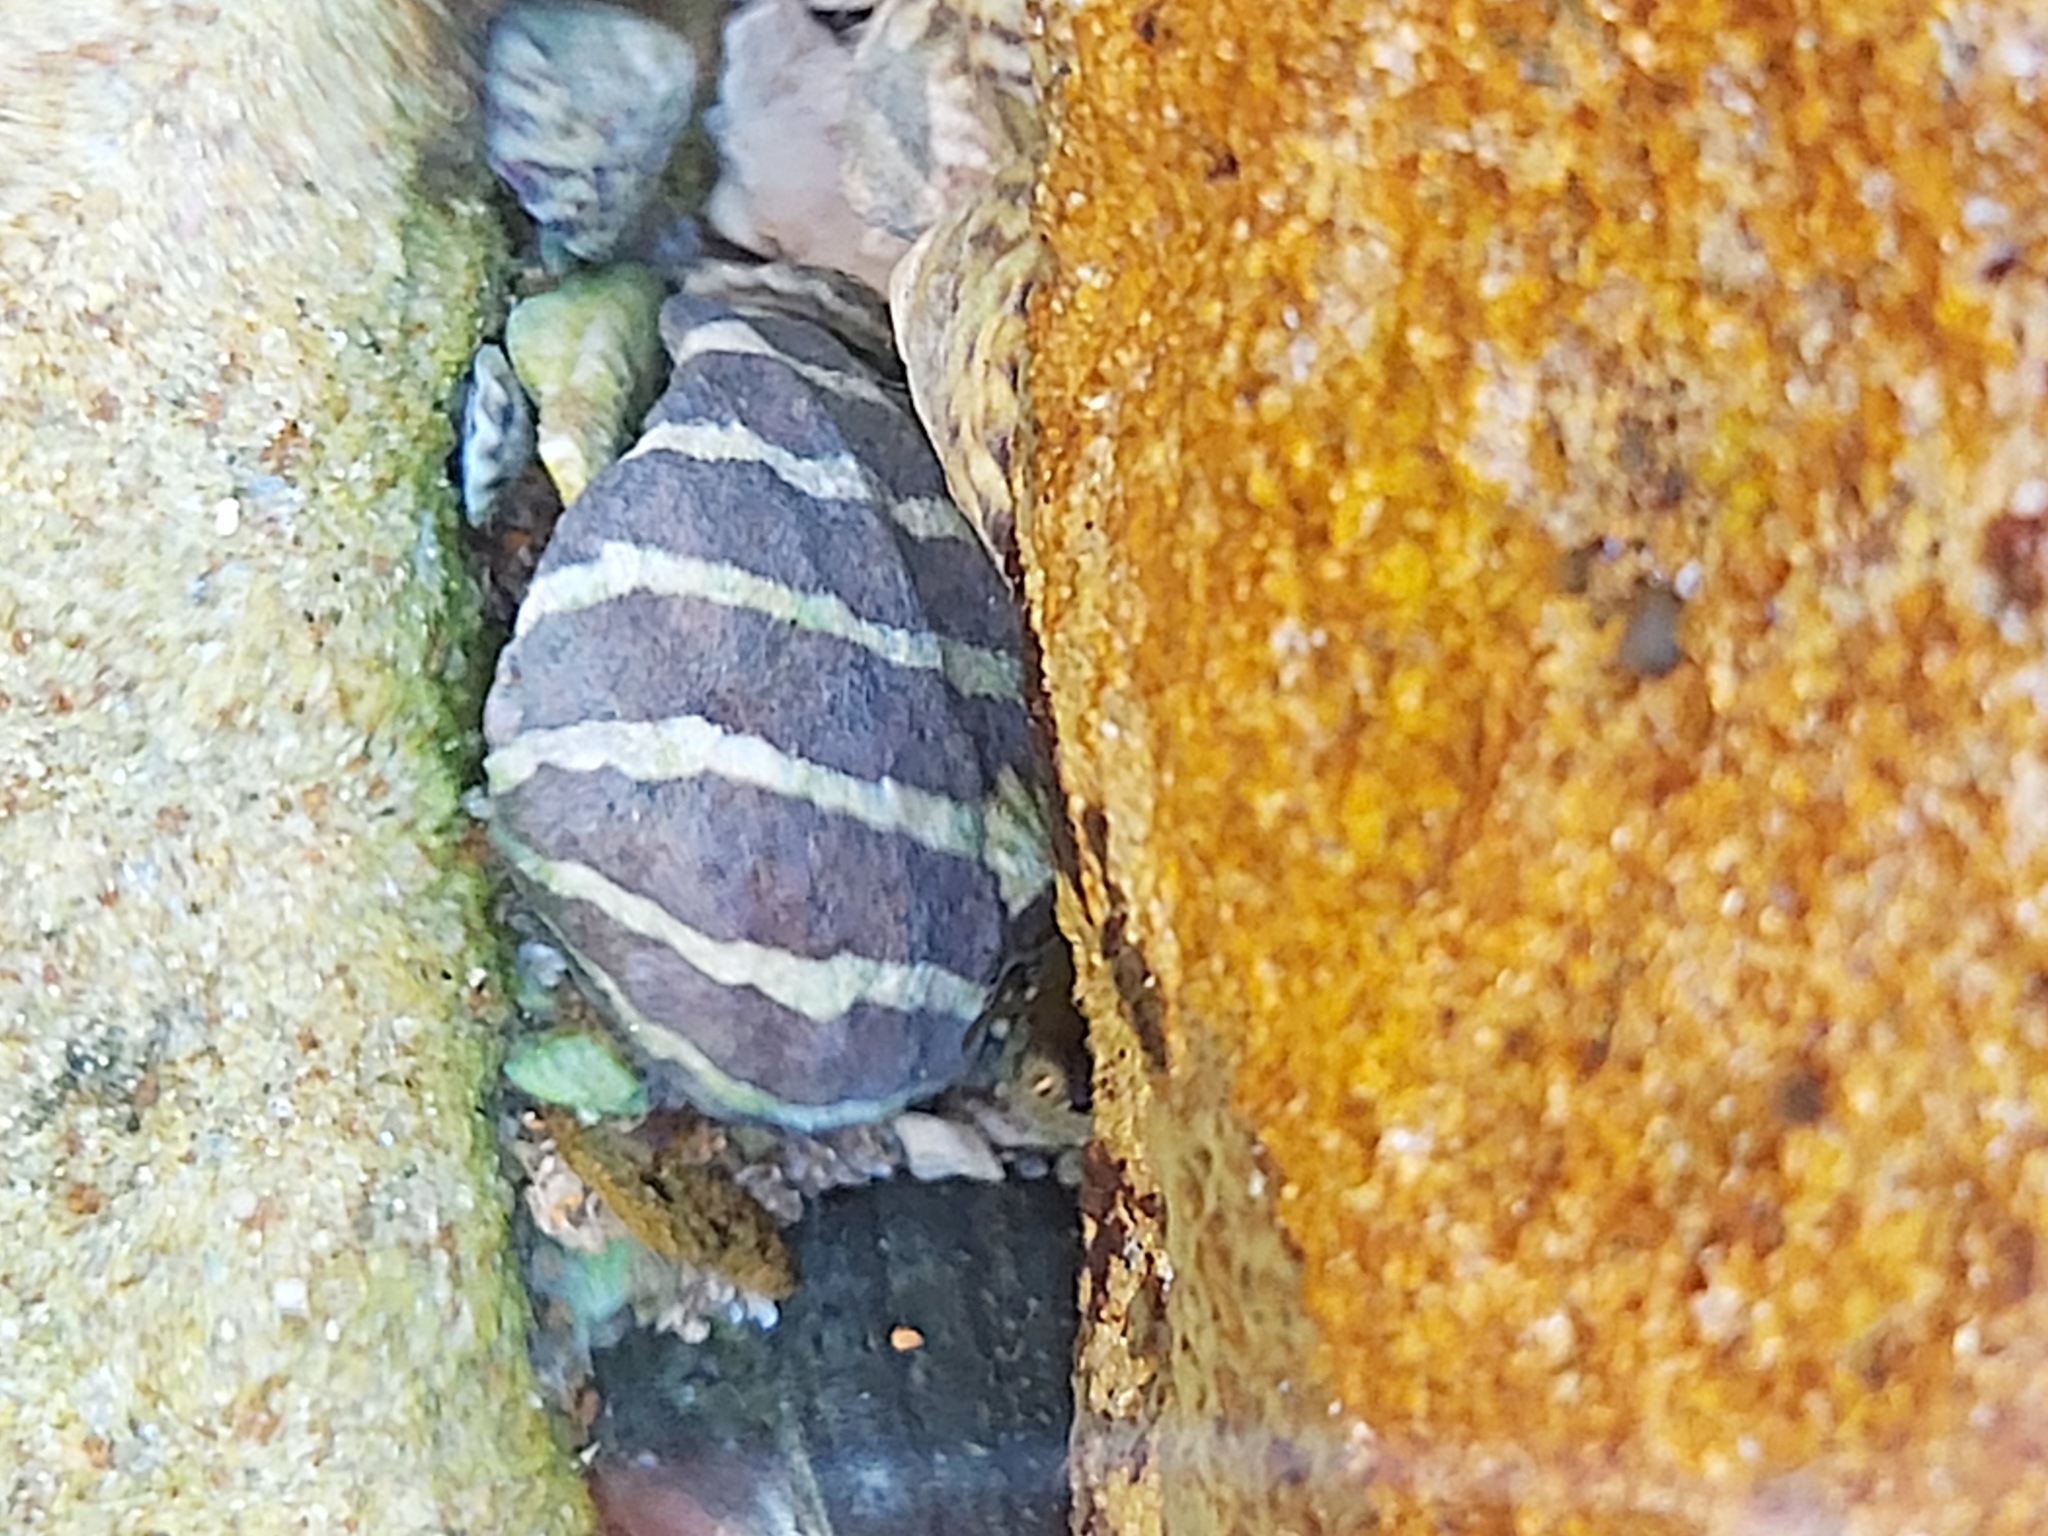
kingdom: Animalia
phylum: Mollusca
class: Gastropoda
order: Trochida
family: Trochidae
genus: Austrocochlea
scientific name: Austrocochlea porcata
